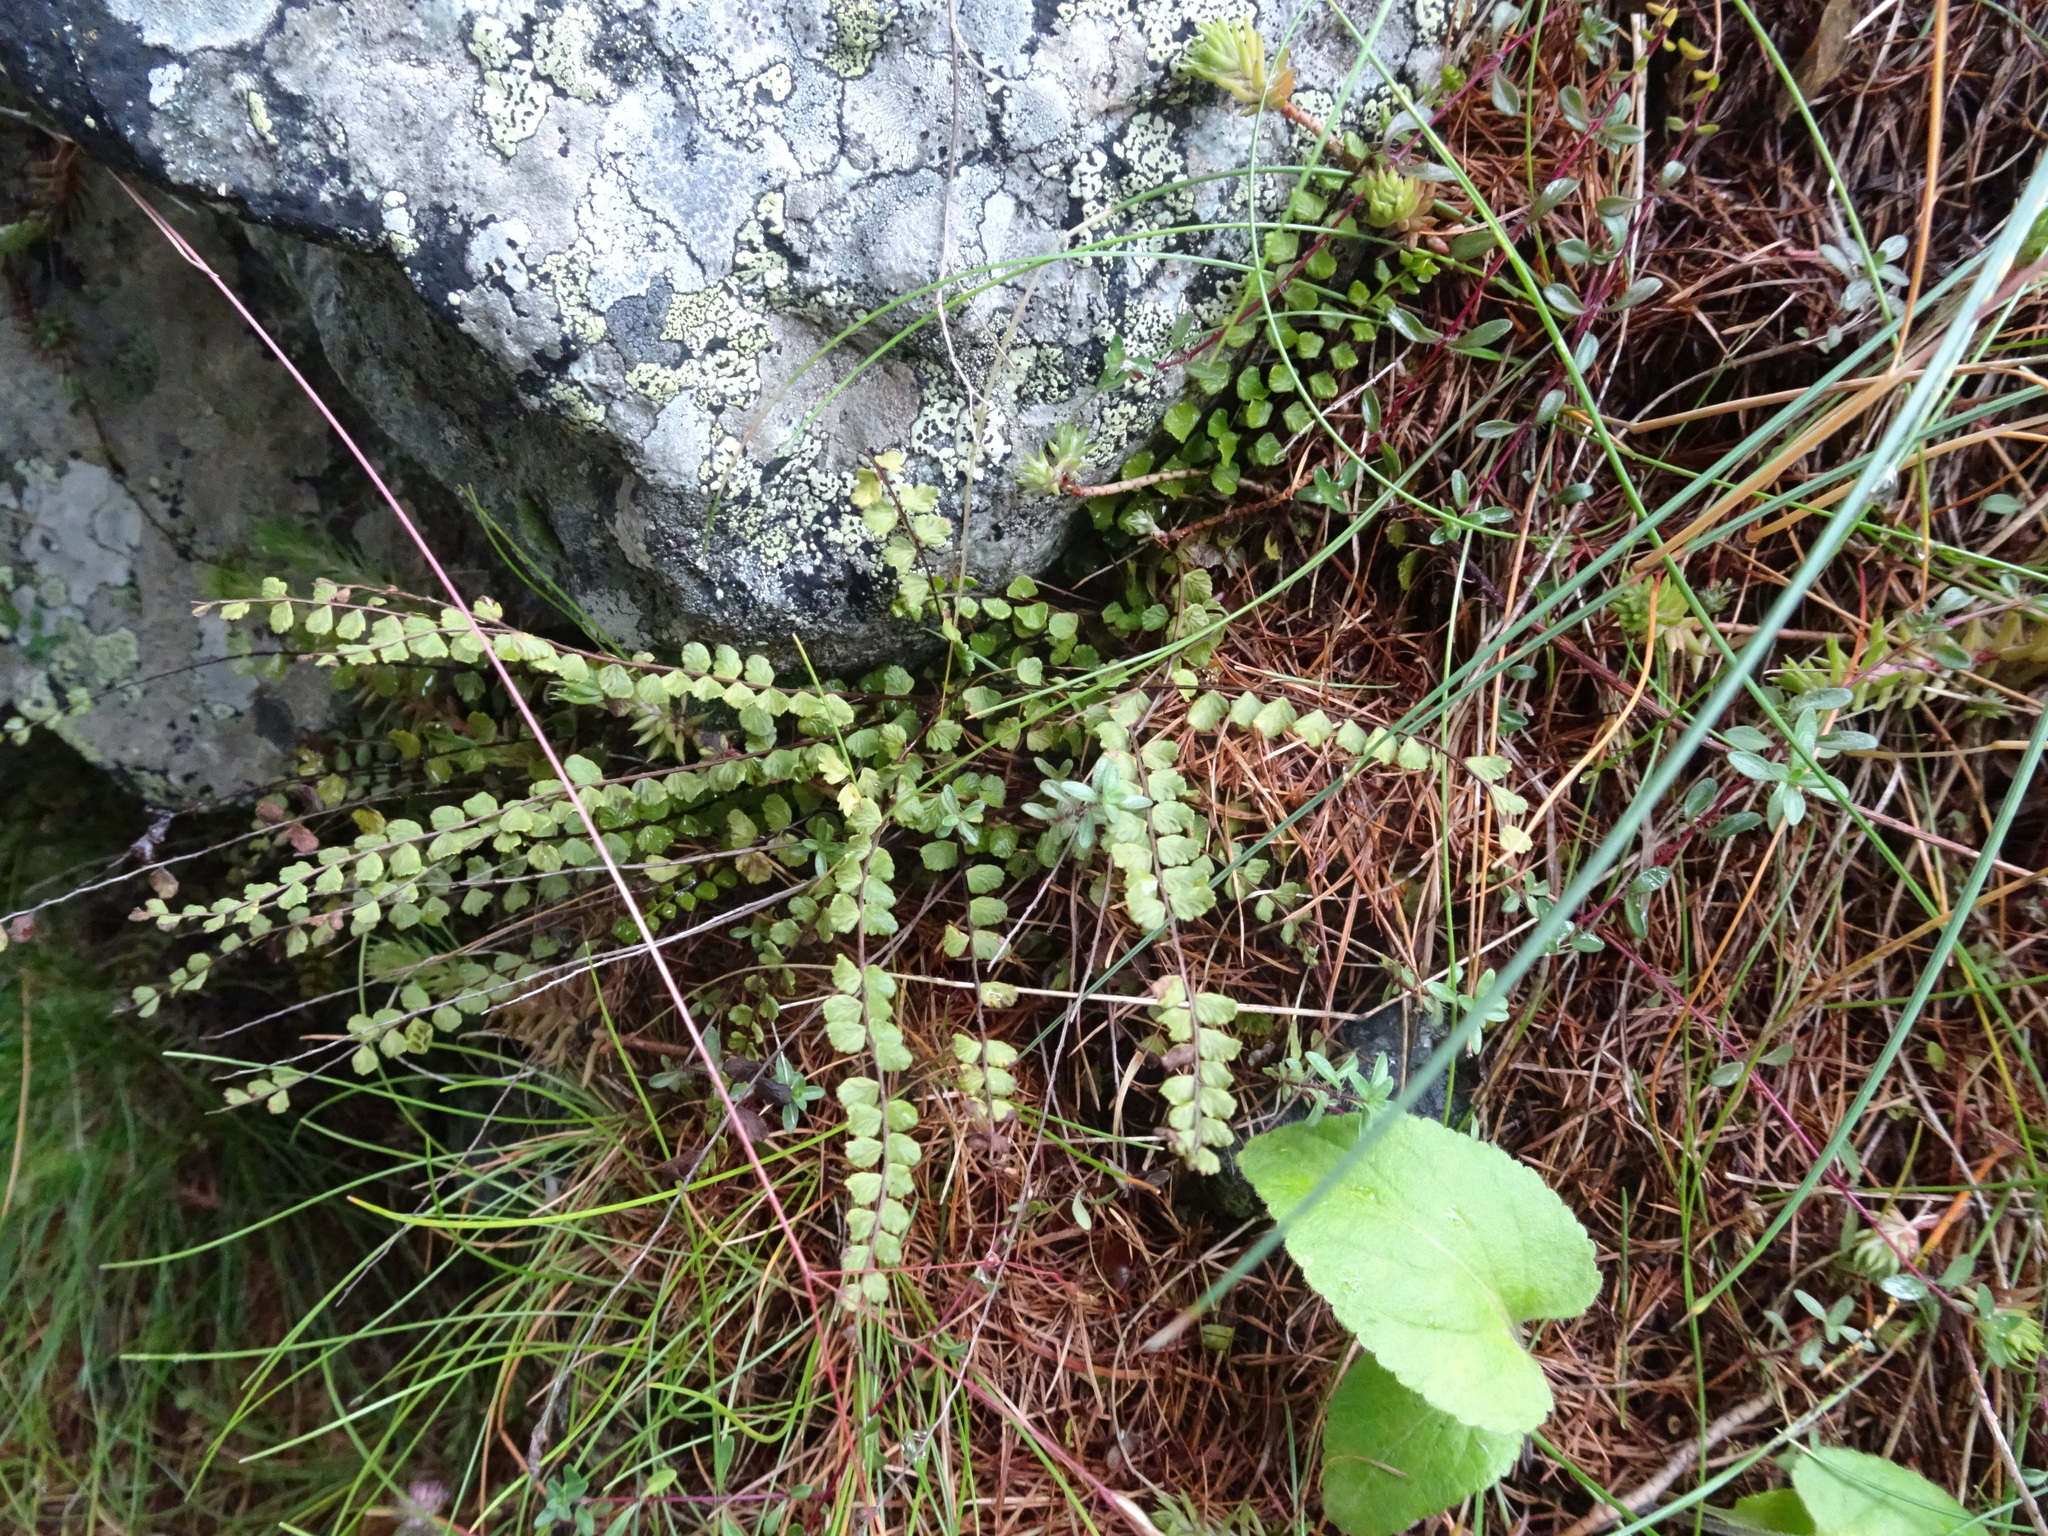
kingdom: Plantae
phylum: Tracheophyta
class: Polypodiopsida
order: Polypodiales
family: Aspleniaceae
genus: Asplenium
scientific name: Asplenium trichomanes
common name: Maidenhair spleenwort
